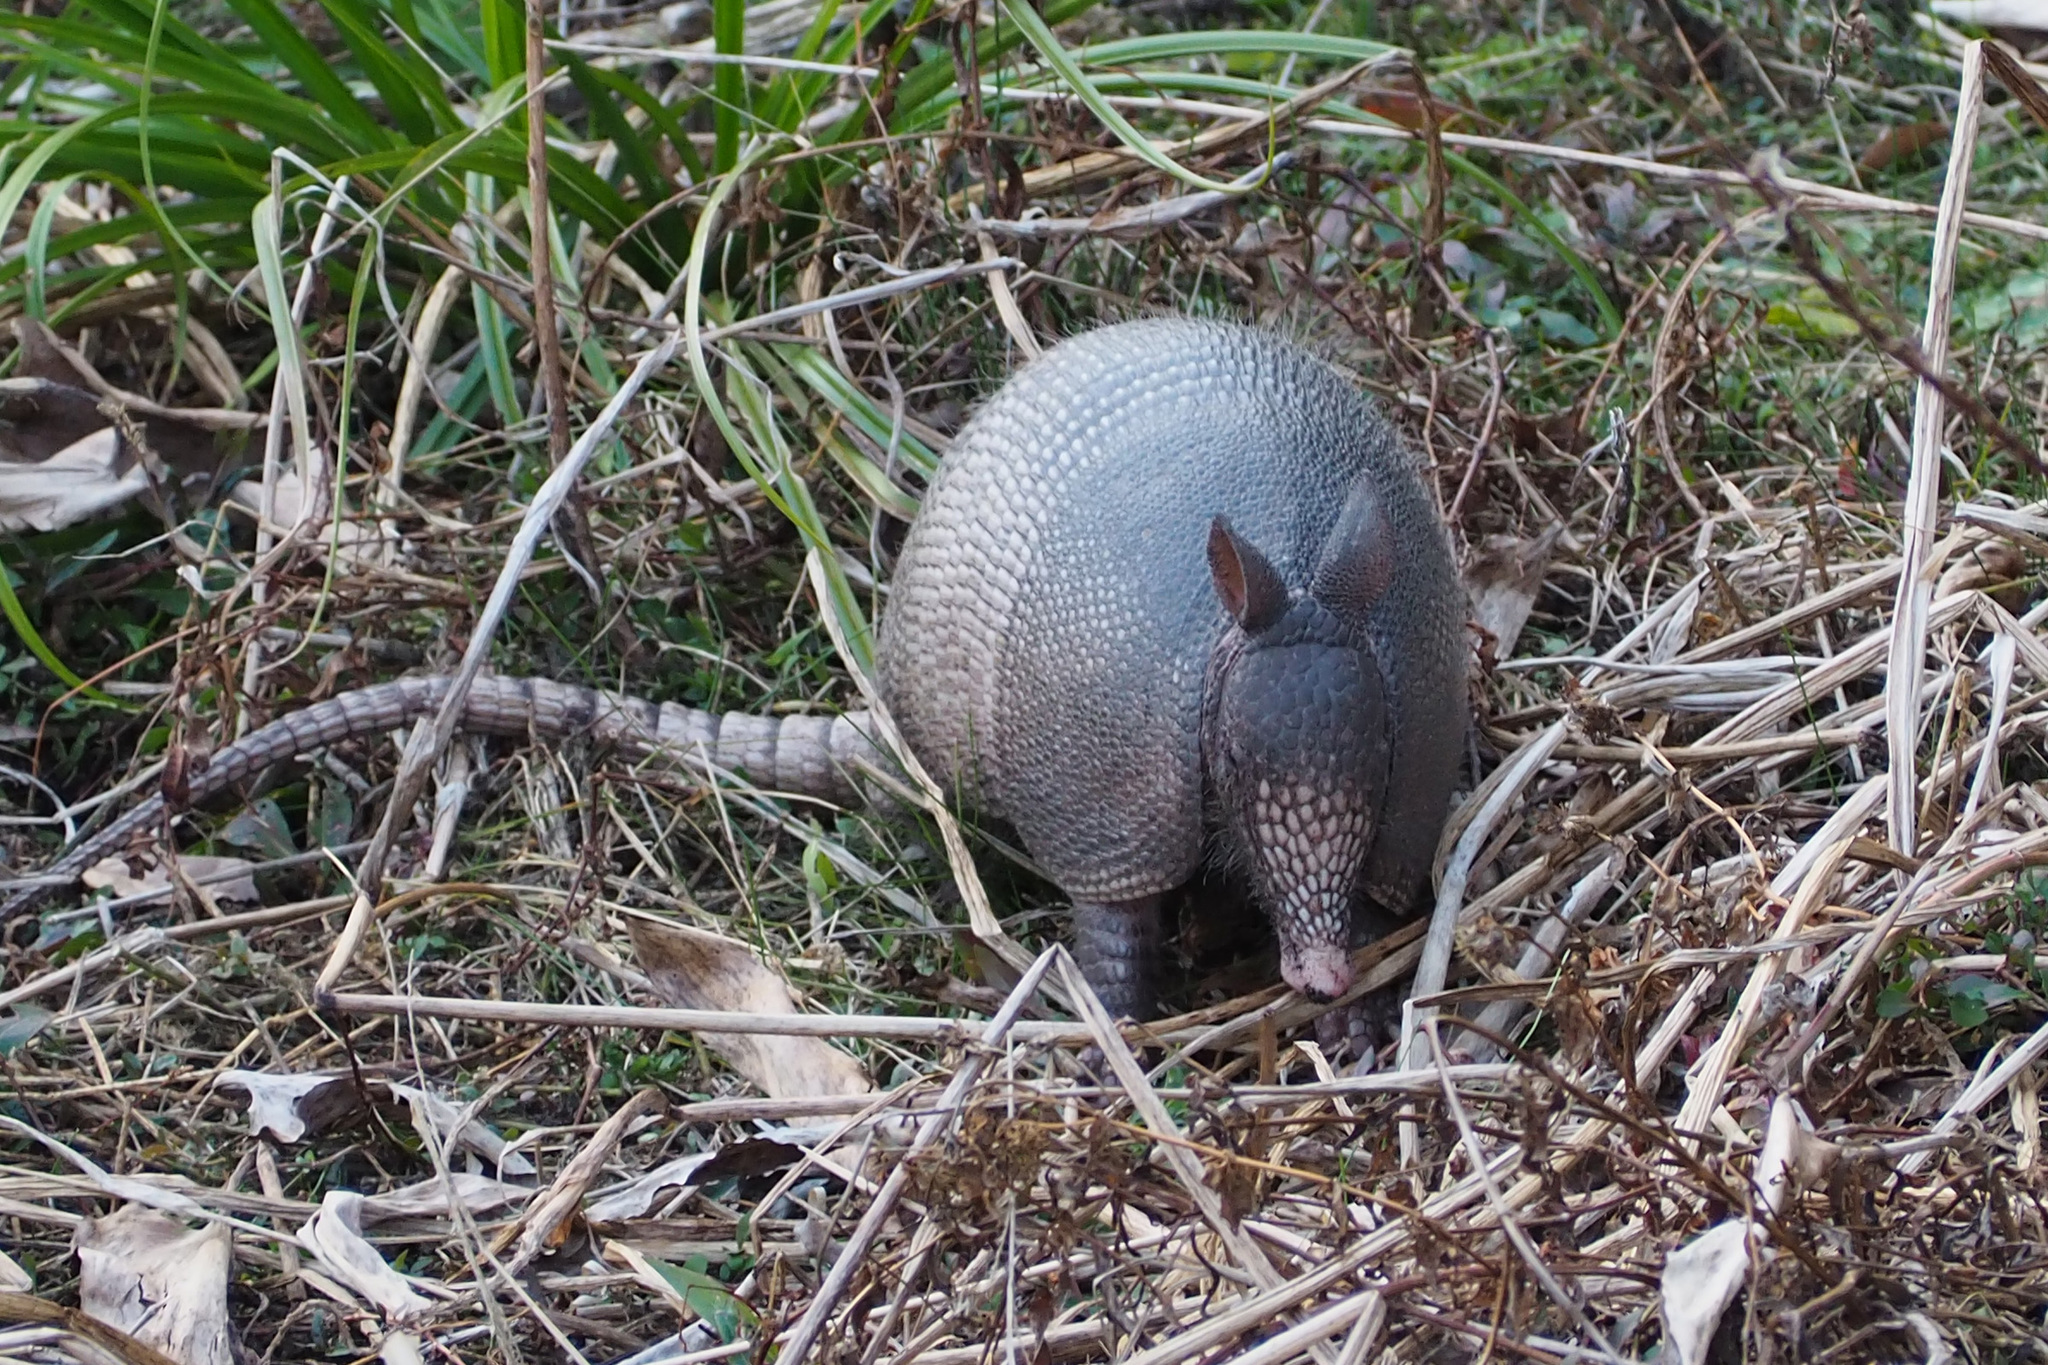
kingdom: Animalia
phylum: Chordata
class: Mammalia
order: Cingulata
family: Dasypodidae
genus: Dasypus
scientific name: Dasypus novemcinctus
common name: Nine-banded armadillo
